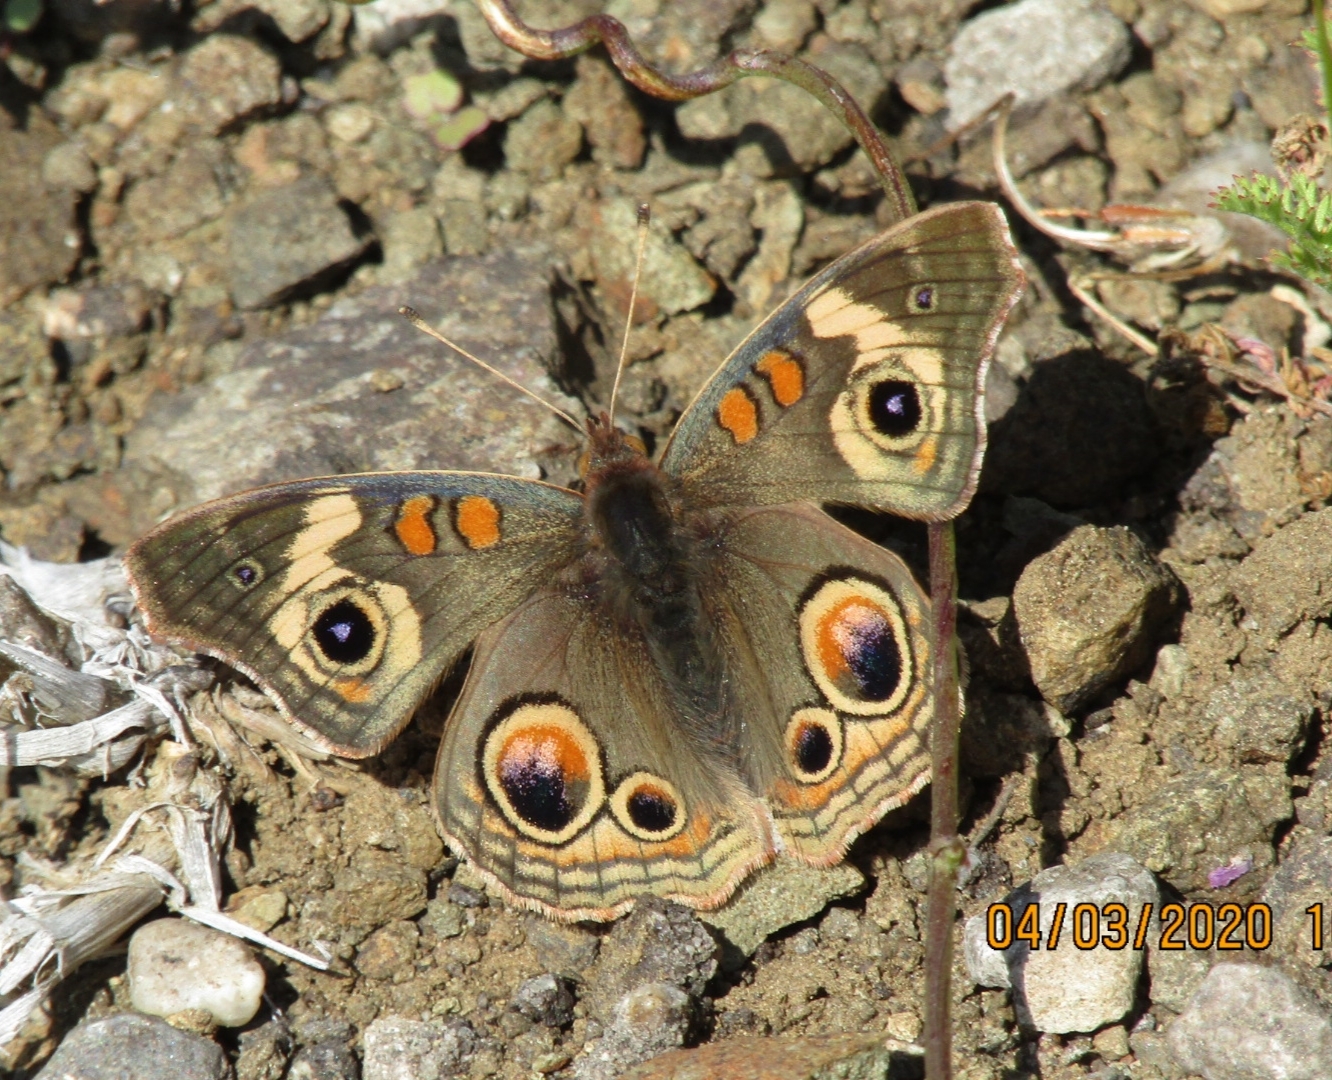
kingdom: Animalia
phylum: Arthropoda
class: Insecta
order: Lepidoptera
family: Nymphalidae
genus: Junonia
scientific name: Junonia grisea
